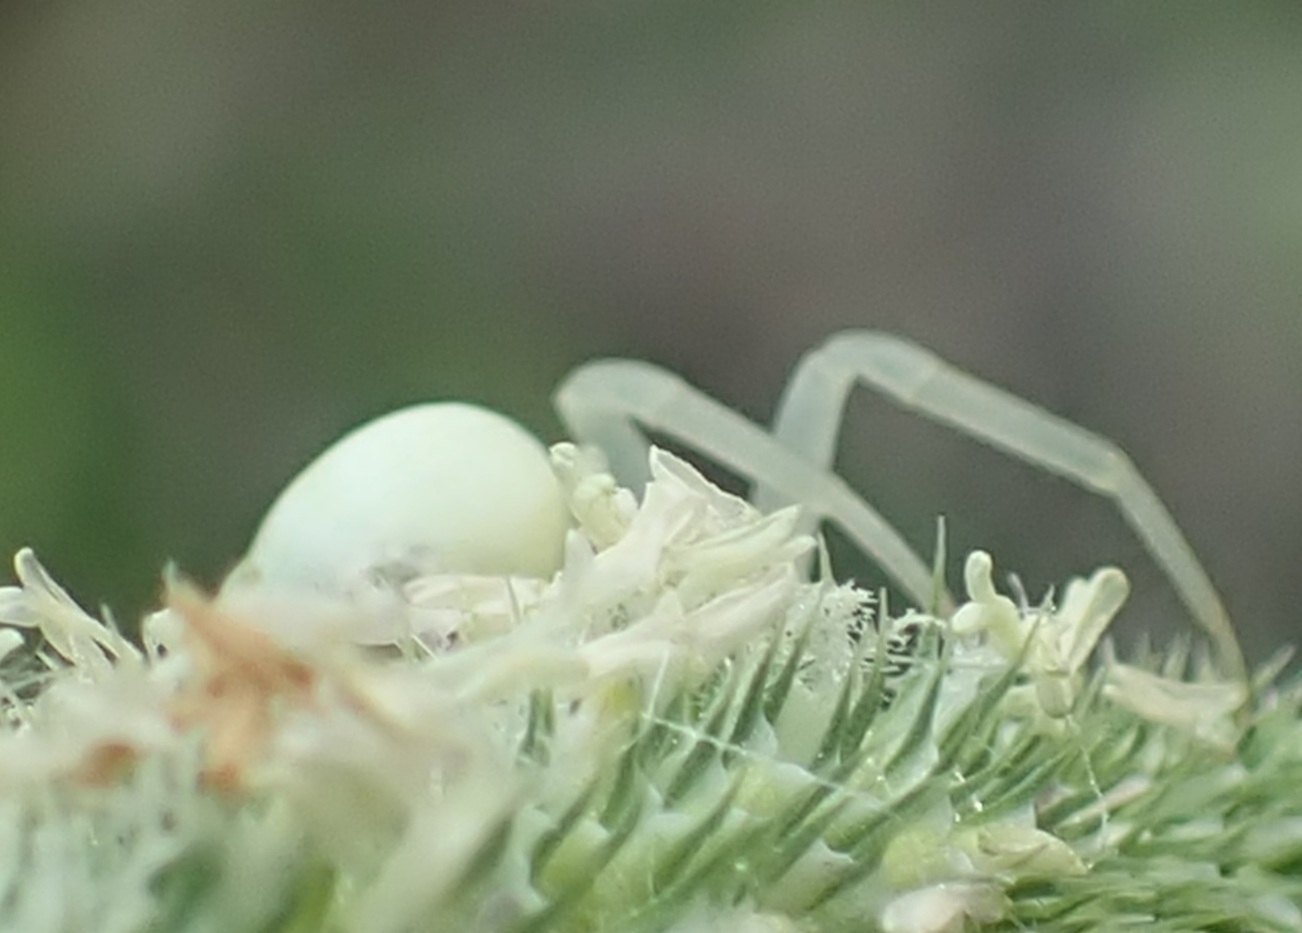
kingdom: Animalia
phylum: Arthropoda
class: Arachnida
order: Araneae
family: Thomisidae
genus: Misumena
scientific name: Misumena vatia
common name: Goldenrod crab spider
